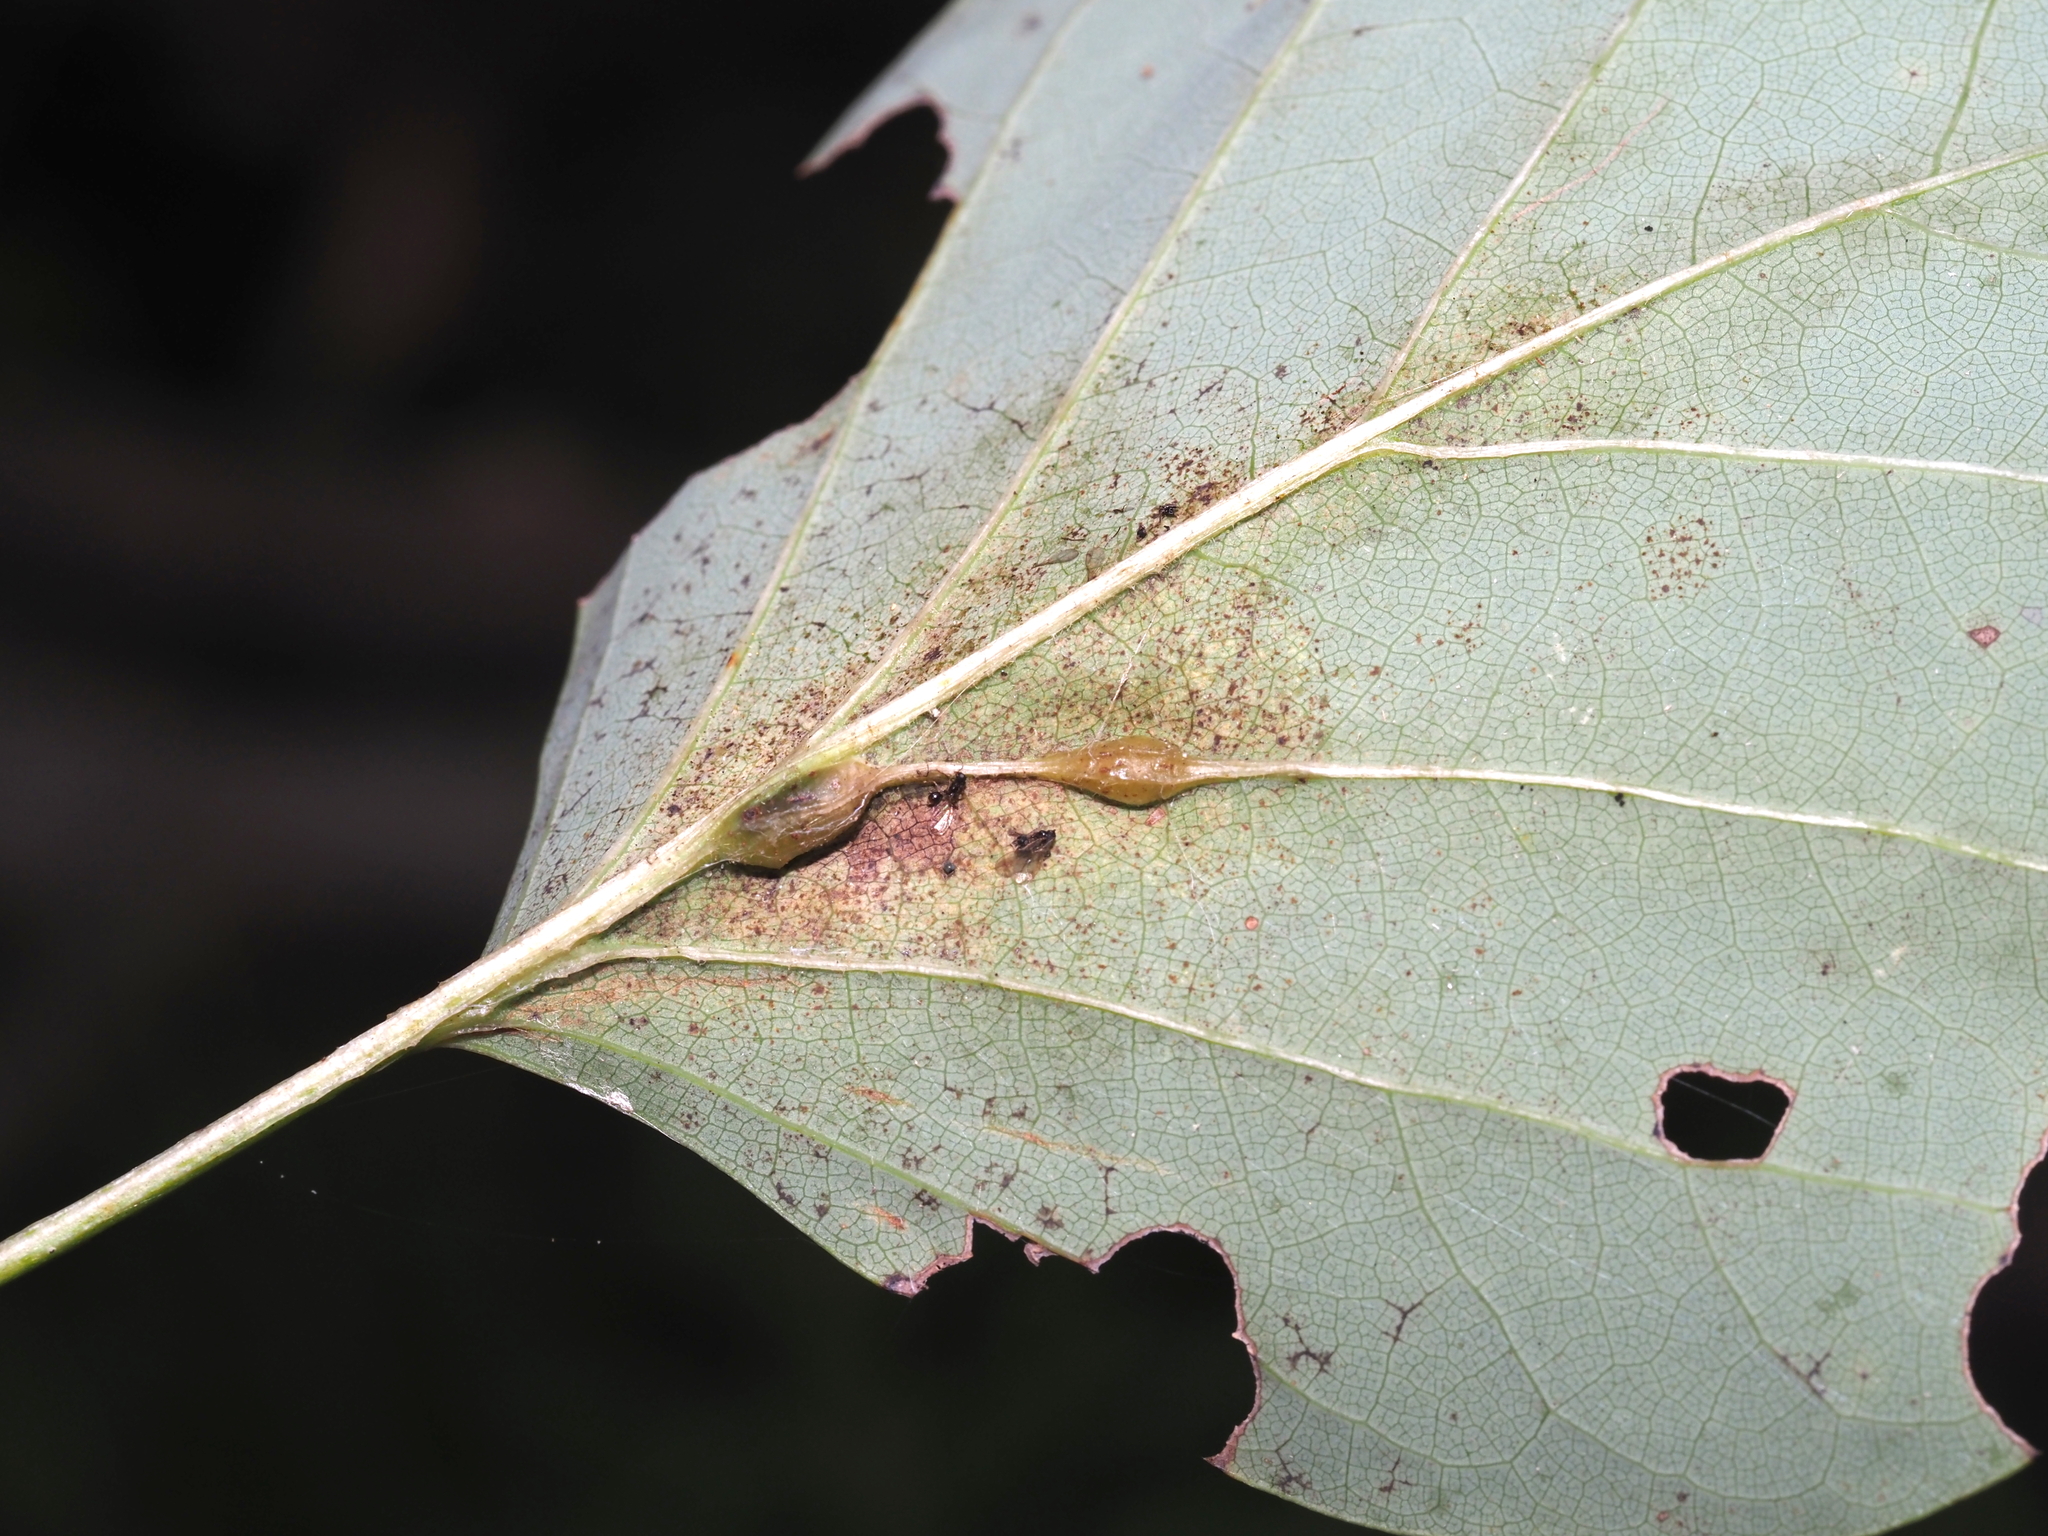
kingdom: Animalia
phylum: Arthropoda
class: Insecta
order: Diptera
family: Cecidomyiidae
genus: Resseliella
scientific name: Resseliella tulipiferae
